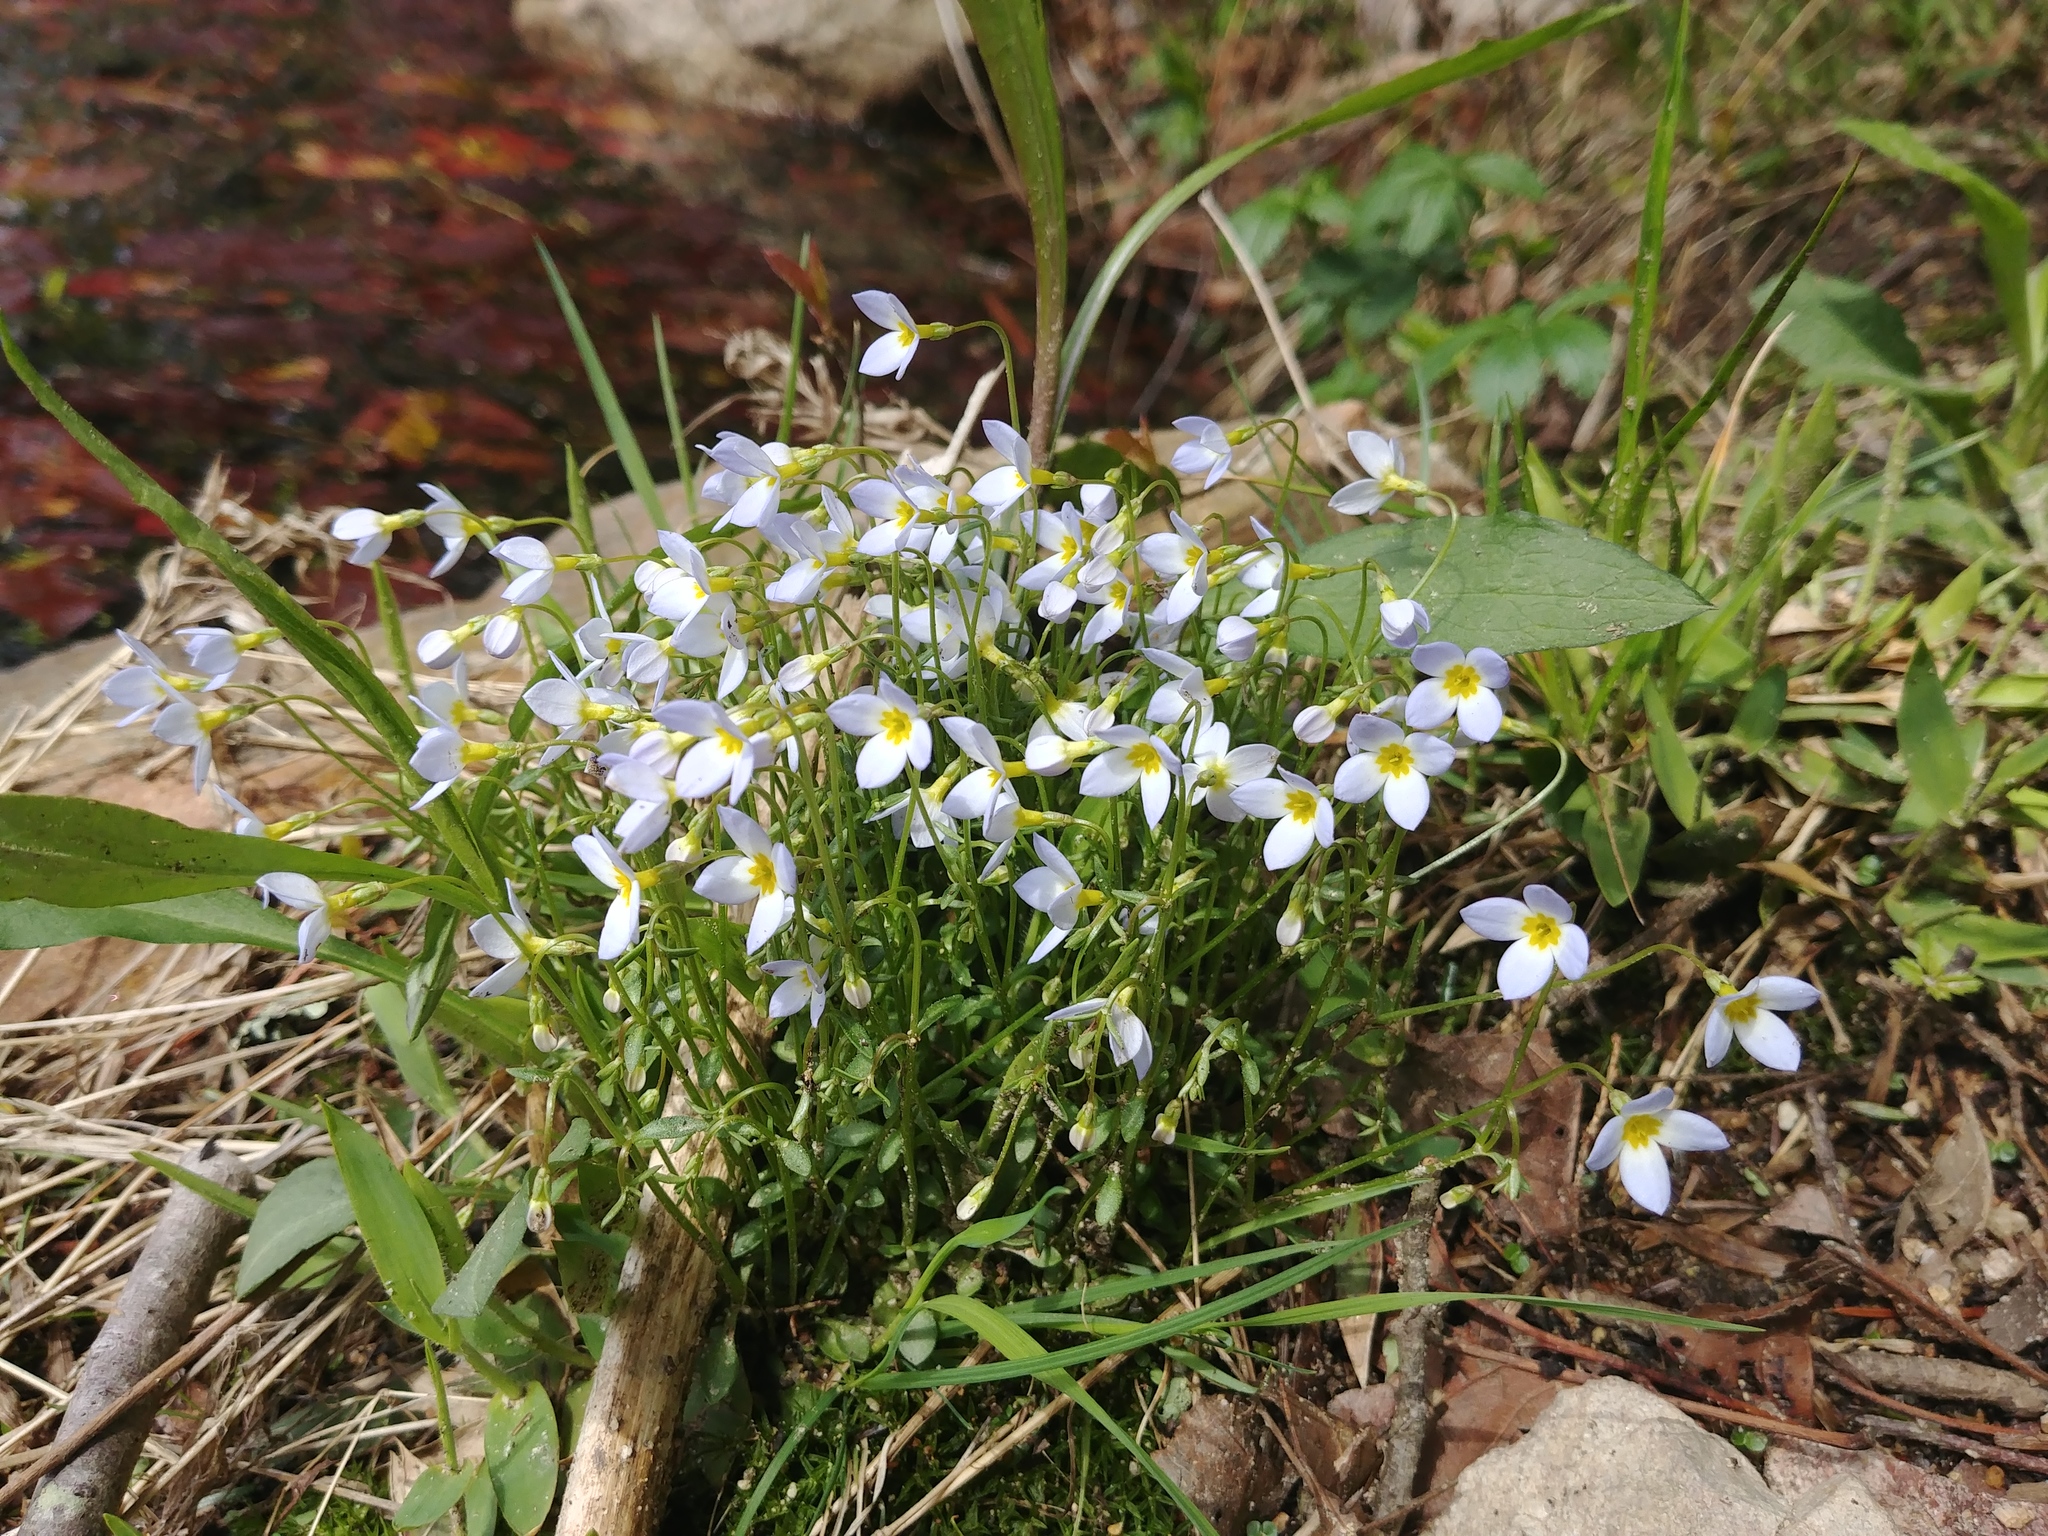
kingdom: Plantae
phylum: Tracheophyta
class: Magnoliopsida
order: Gentianales
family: Rubiaceae
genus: Houstonia
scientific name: Houstonia caerulea
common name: Bluets
